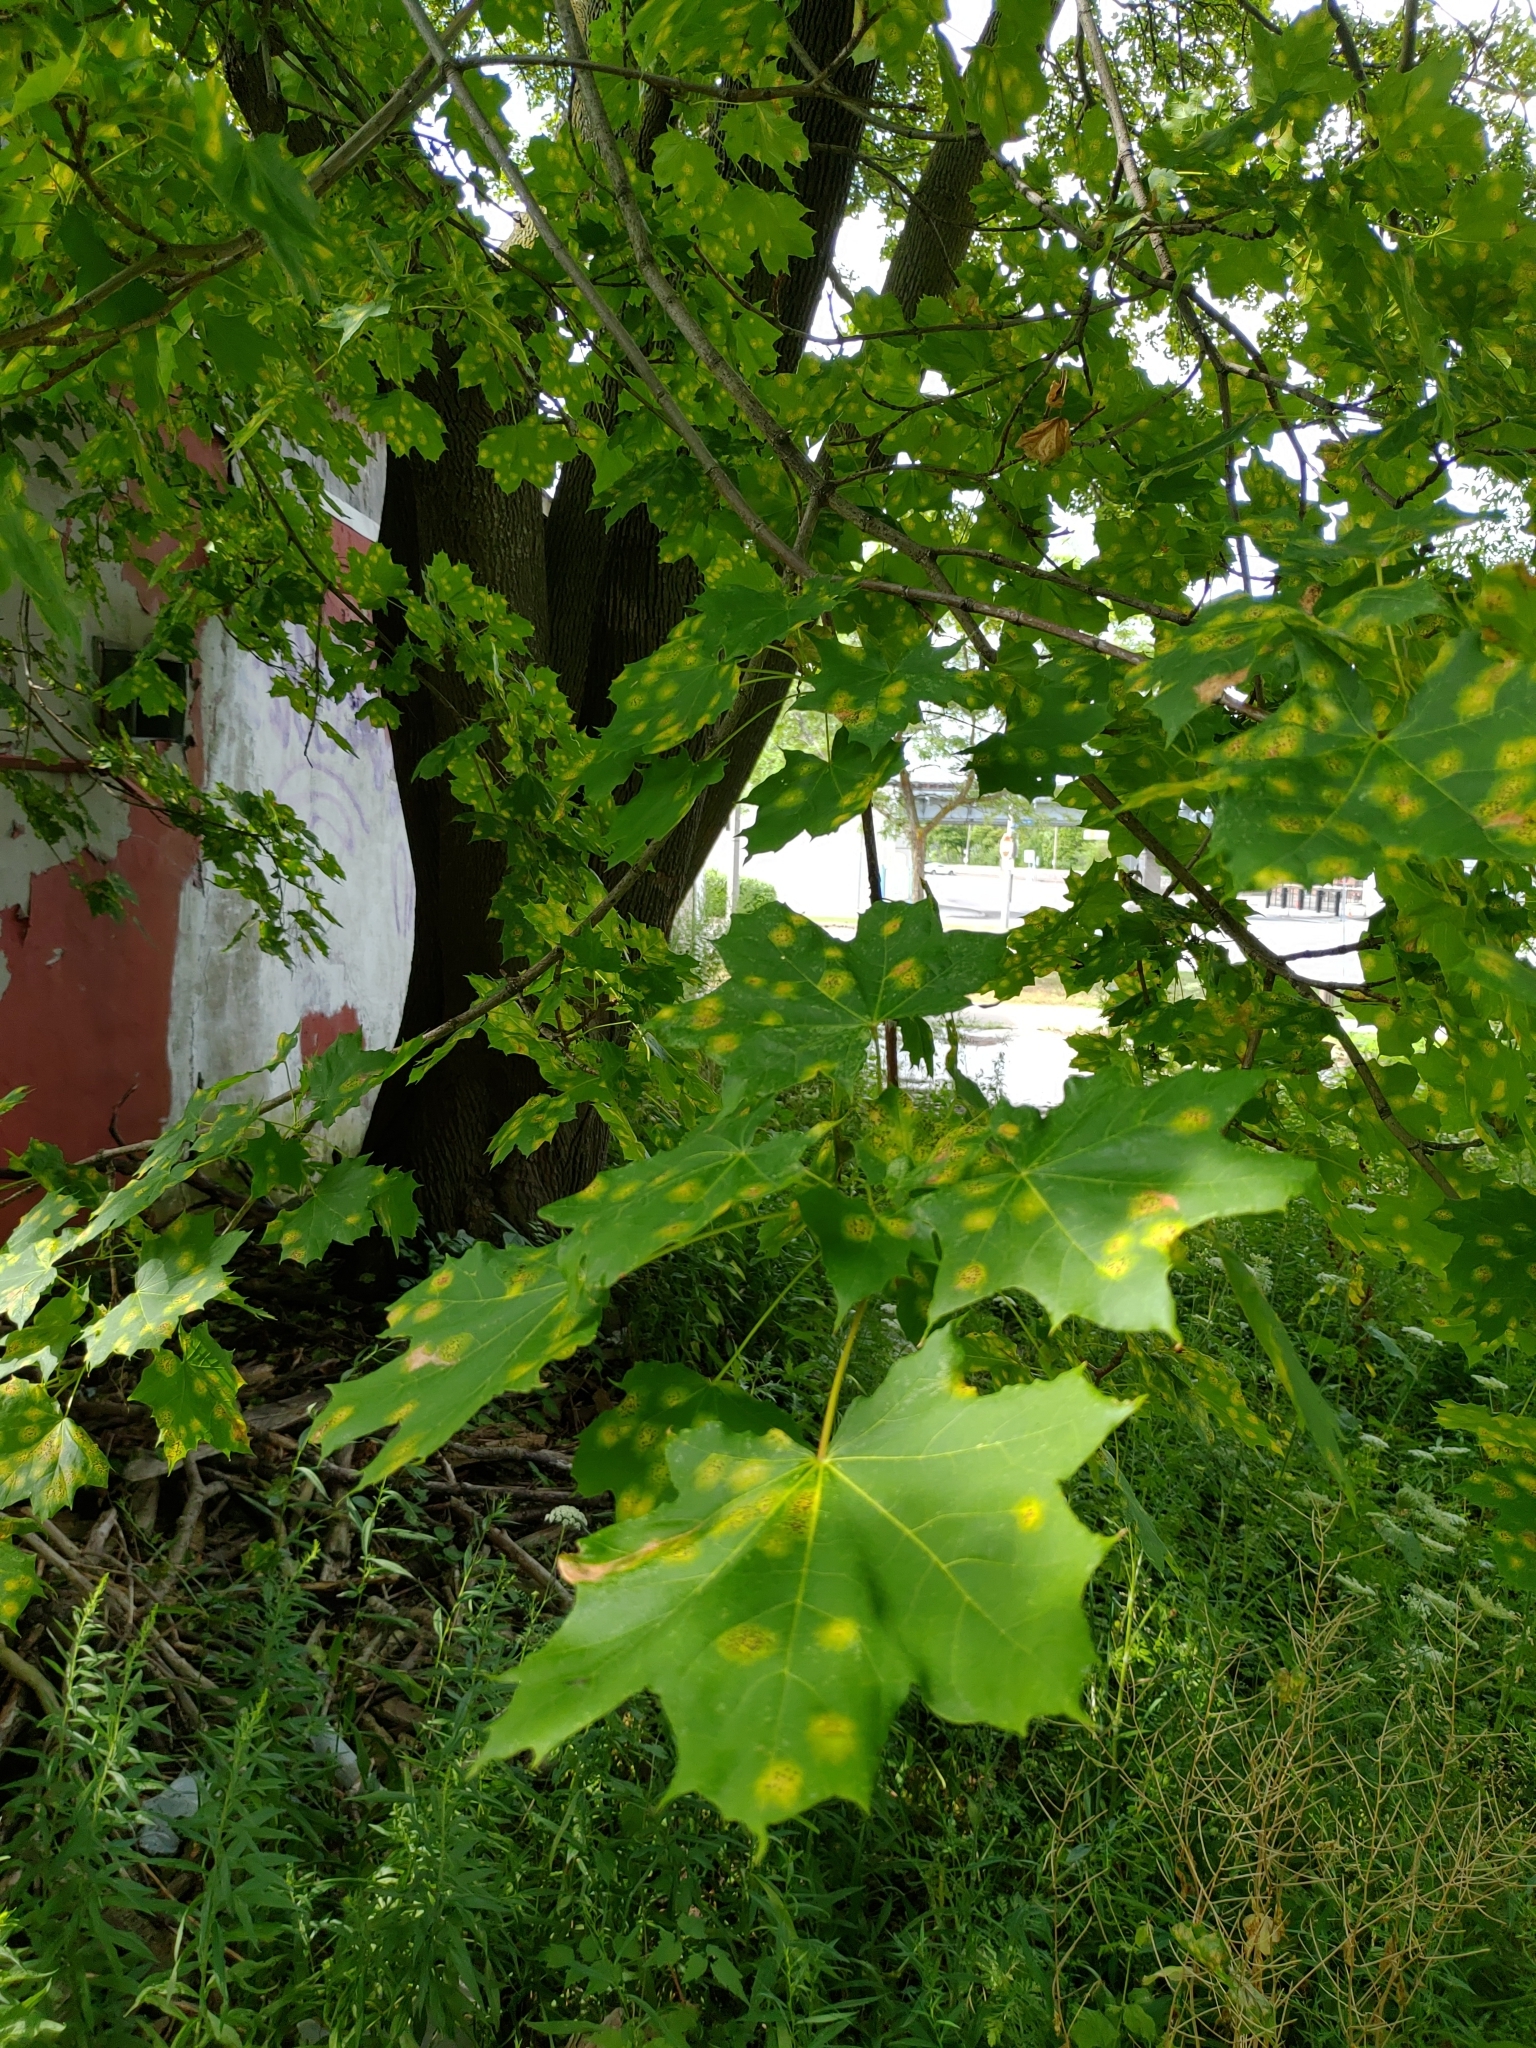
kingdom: Plantae
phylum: Tracheophyta
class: Magnoliopsida
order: Sapindales
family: Sapindaceae
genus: Acer
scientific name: Acer platanoides
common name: Norway maple
